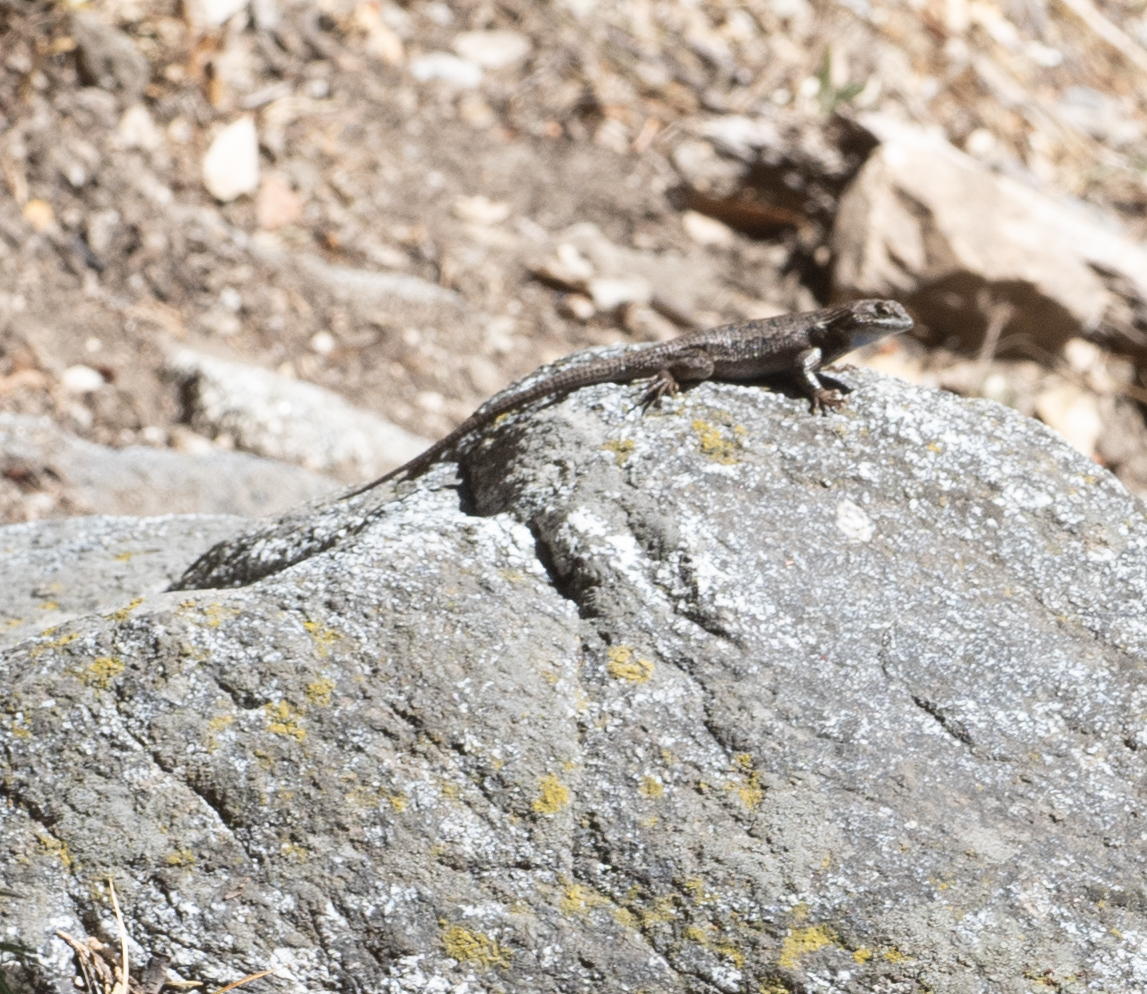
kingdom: Animalia
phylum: Chordata
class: Squamata
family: Phrynosomatidae
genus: Sceloporus
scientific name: Sceloporus occidentalis
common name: Western fence lizard
